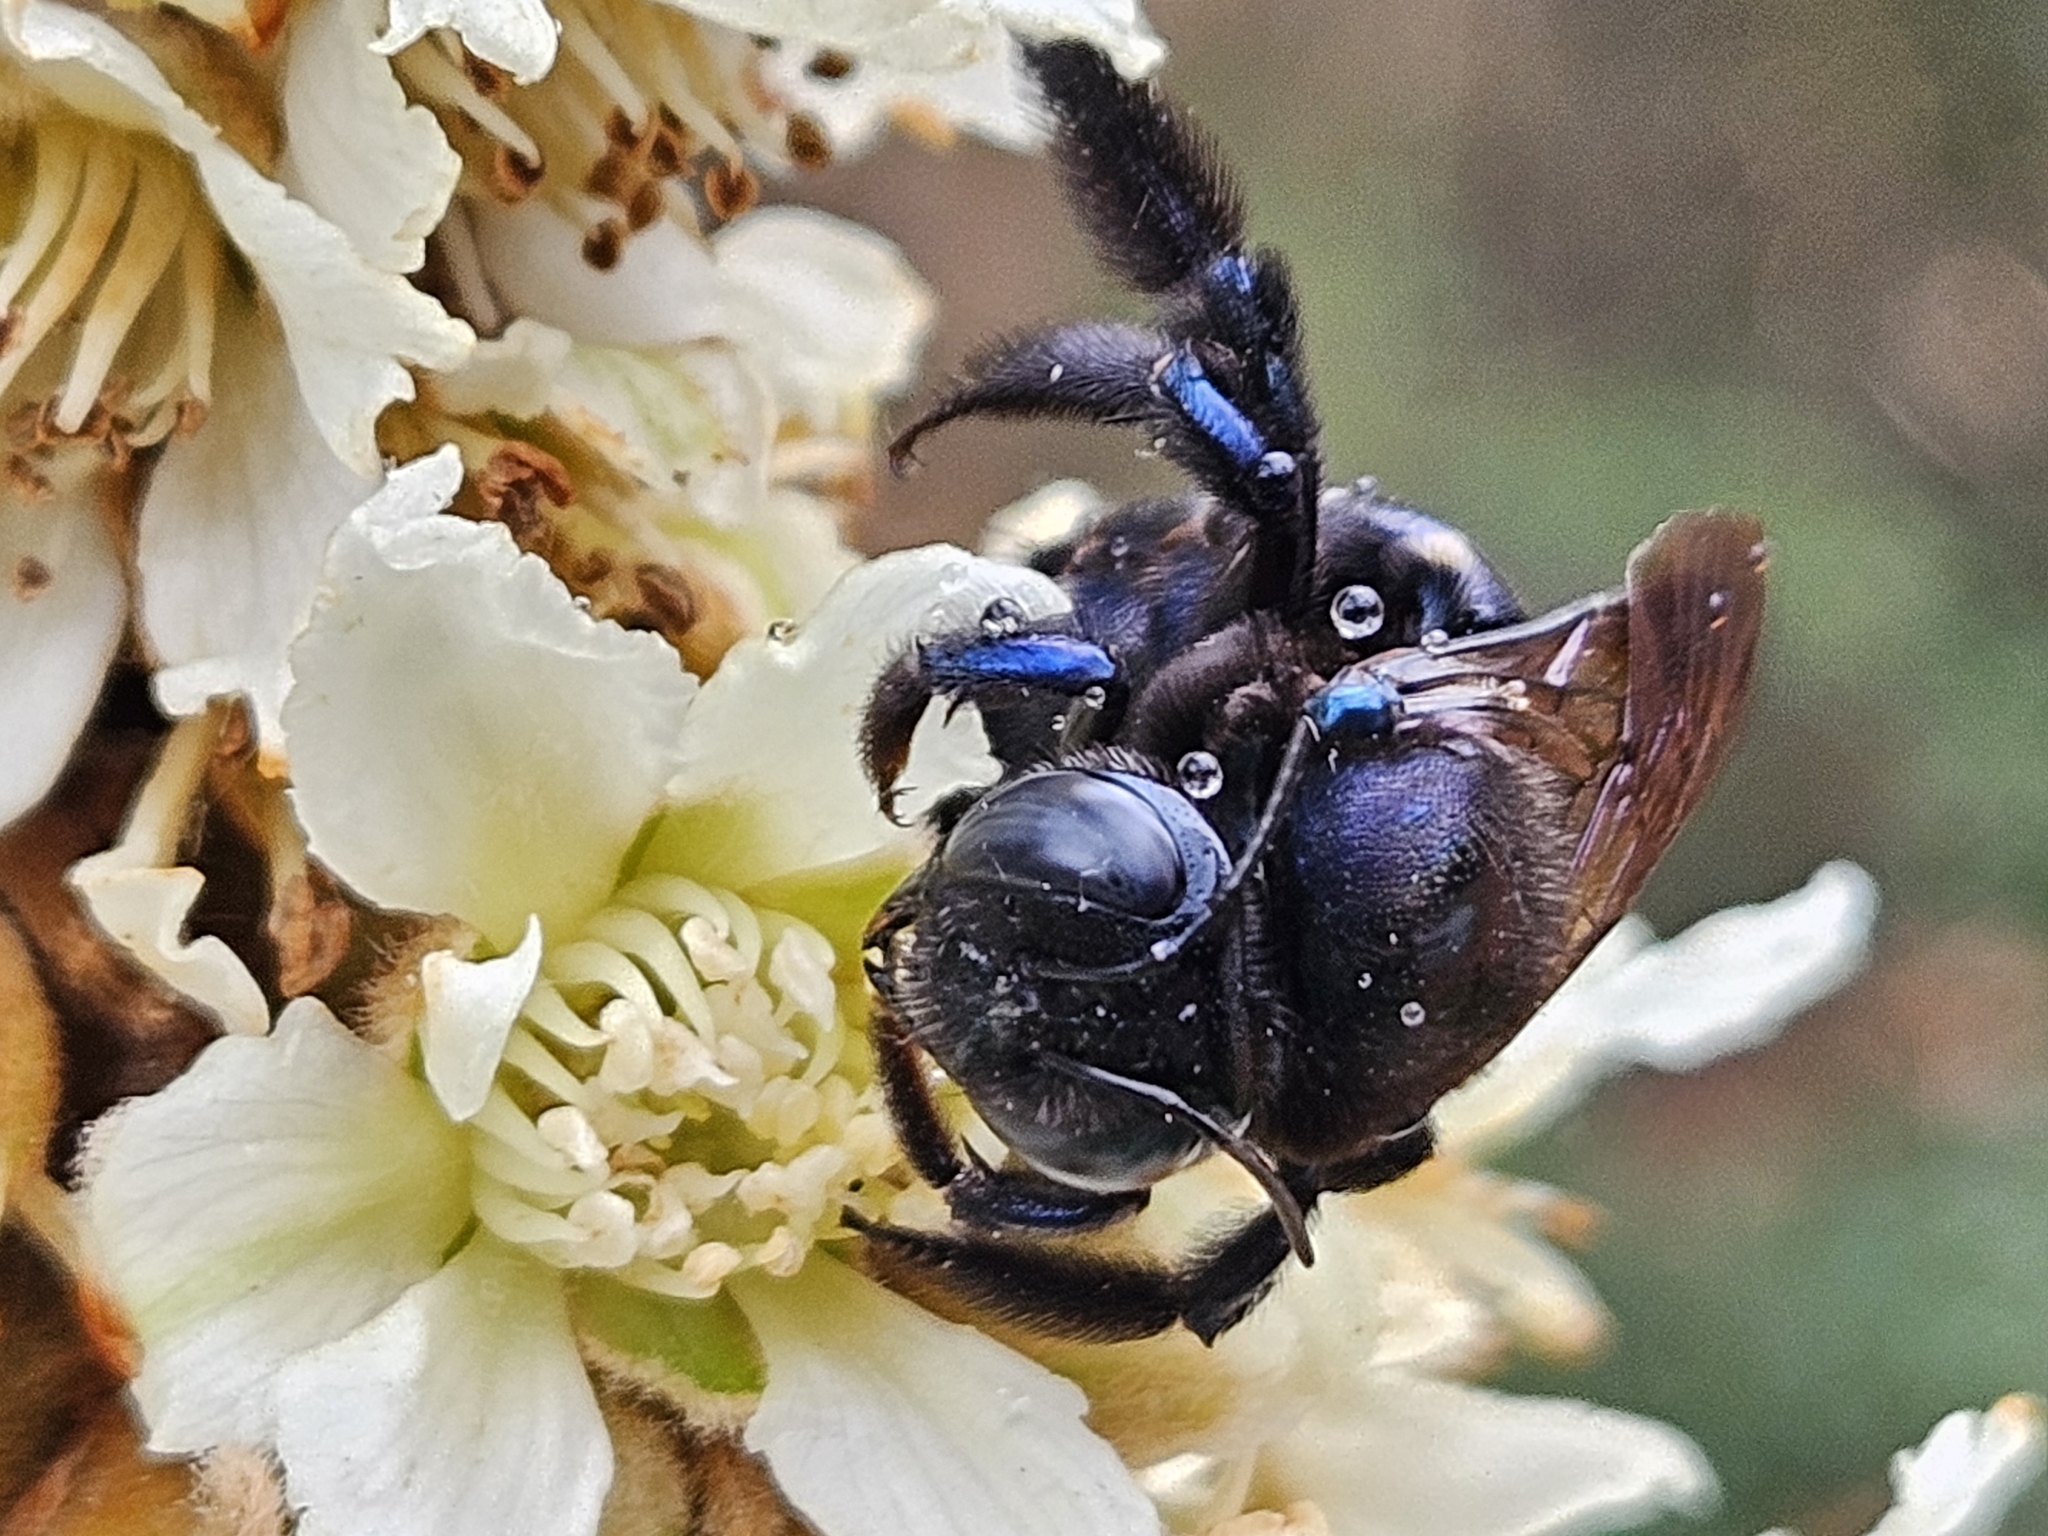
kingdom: Animalia
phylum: Arthropoda
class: Insecta
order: Hymenoptera
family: Apidae
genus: Xylocopa
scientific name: Xylocopa micans
